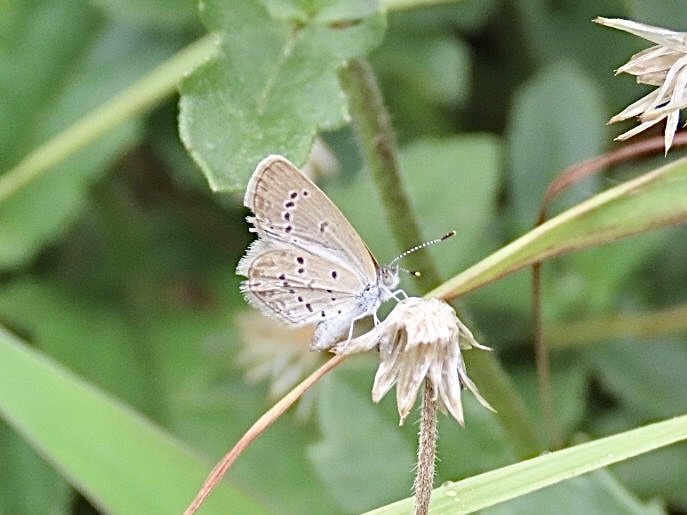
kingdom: Animalia
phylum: Arthropoda
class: Insecta
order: Lepidoptera
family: Lycaenidae
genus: Zizina
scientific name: Zizina otis
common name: Lesser grass blue
